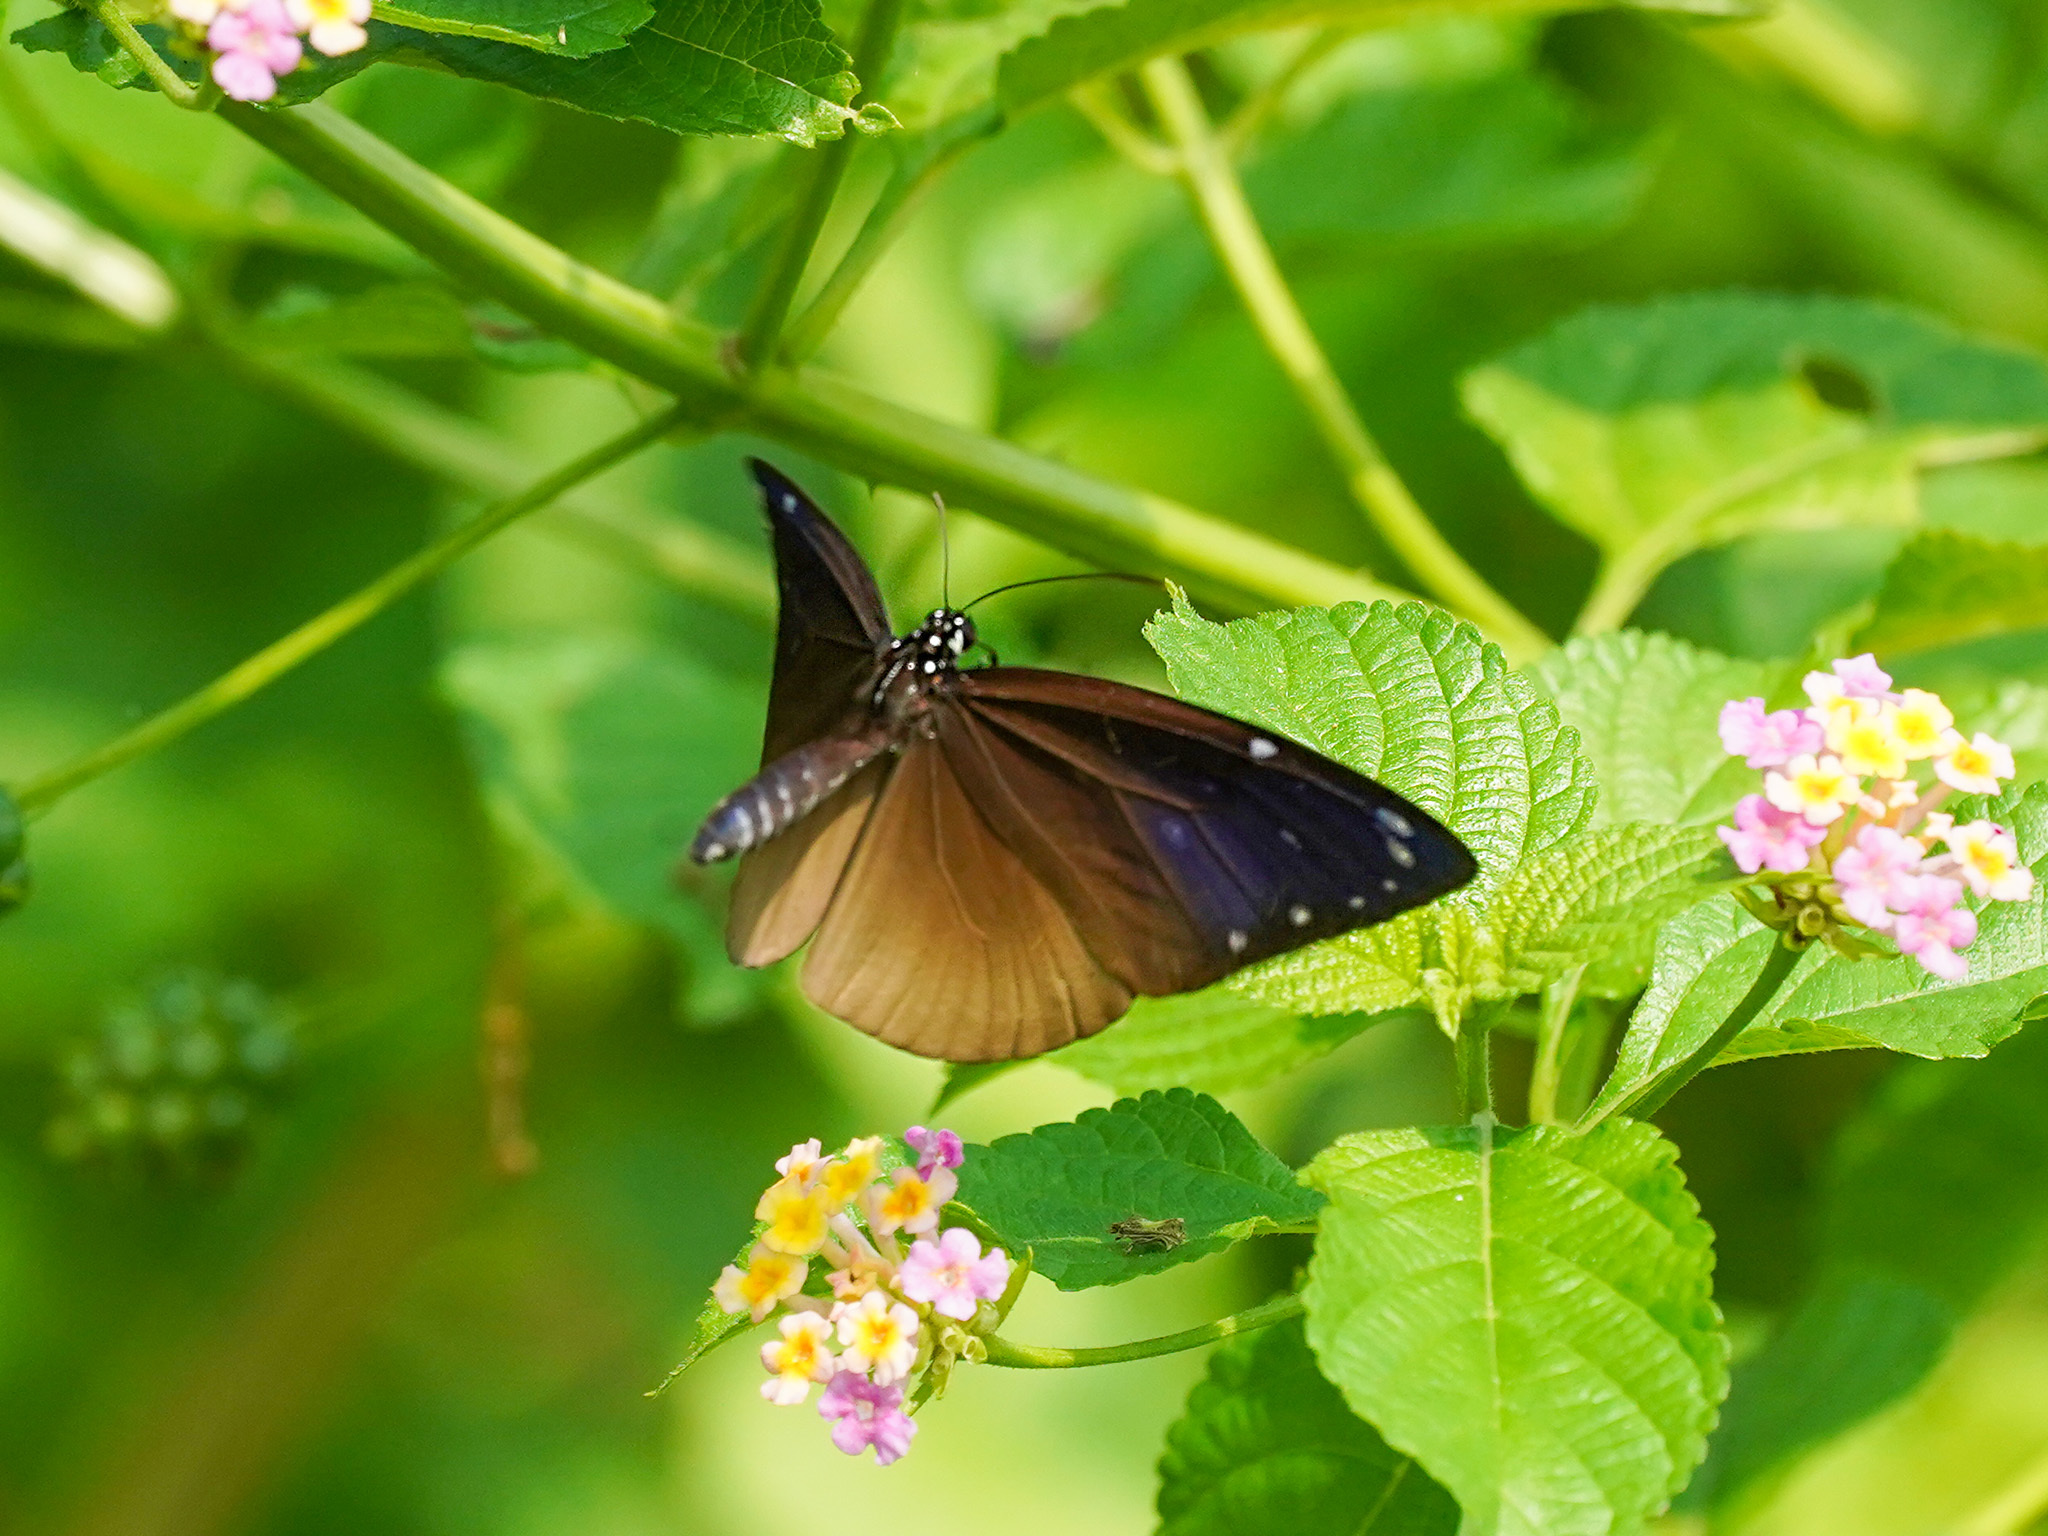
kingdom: Animalia
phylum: Arthropoda
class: Insecta
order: Lepidoptera
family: Nymphalidae
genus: Euploea
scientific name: Euploea tulliolus
